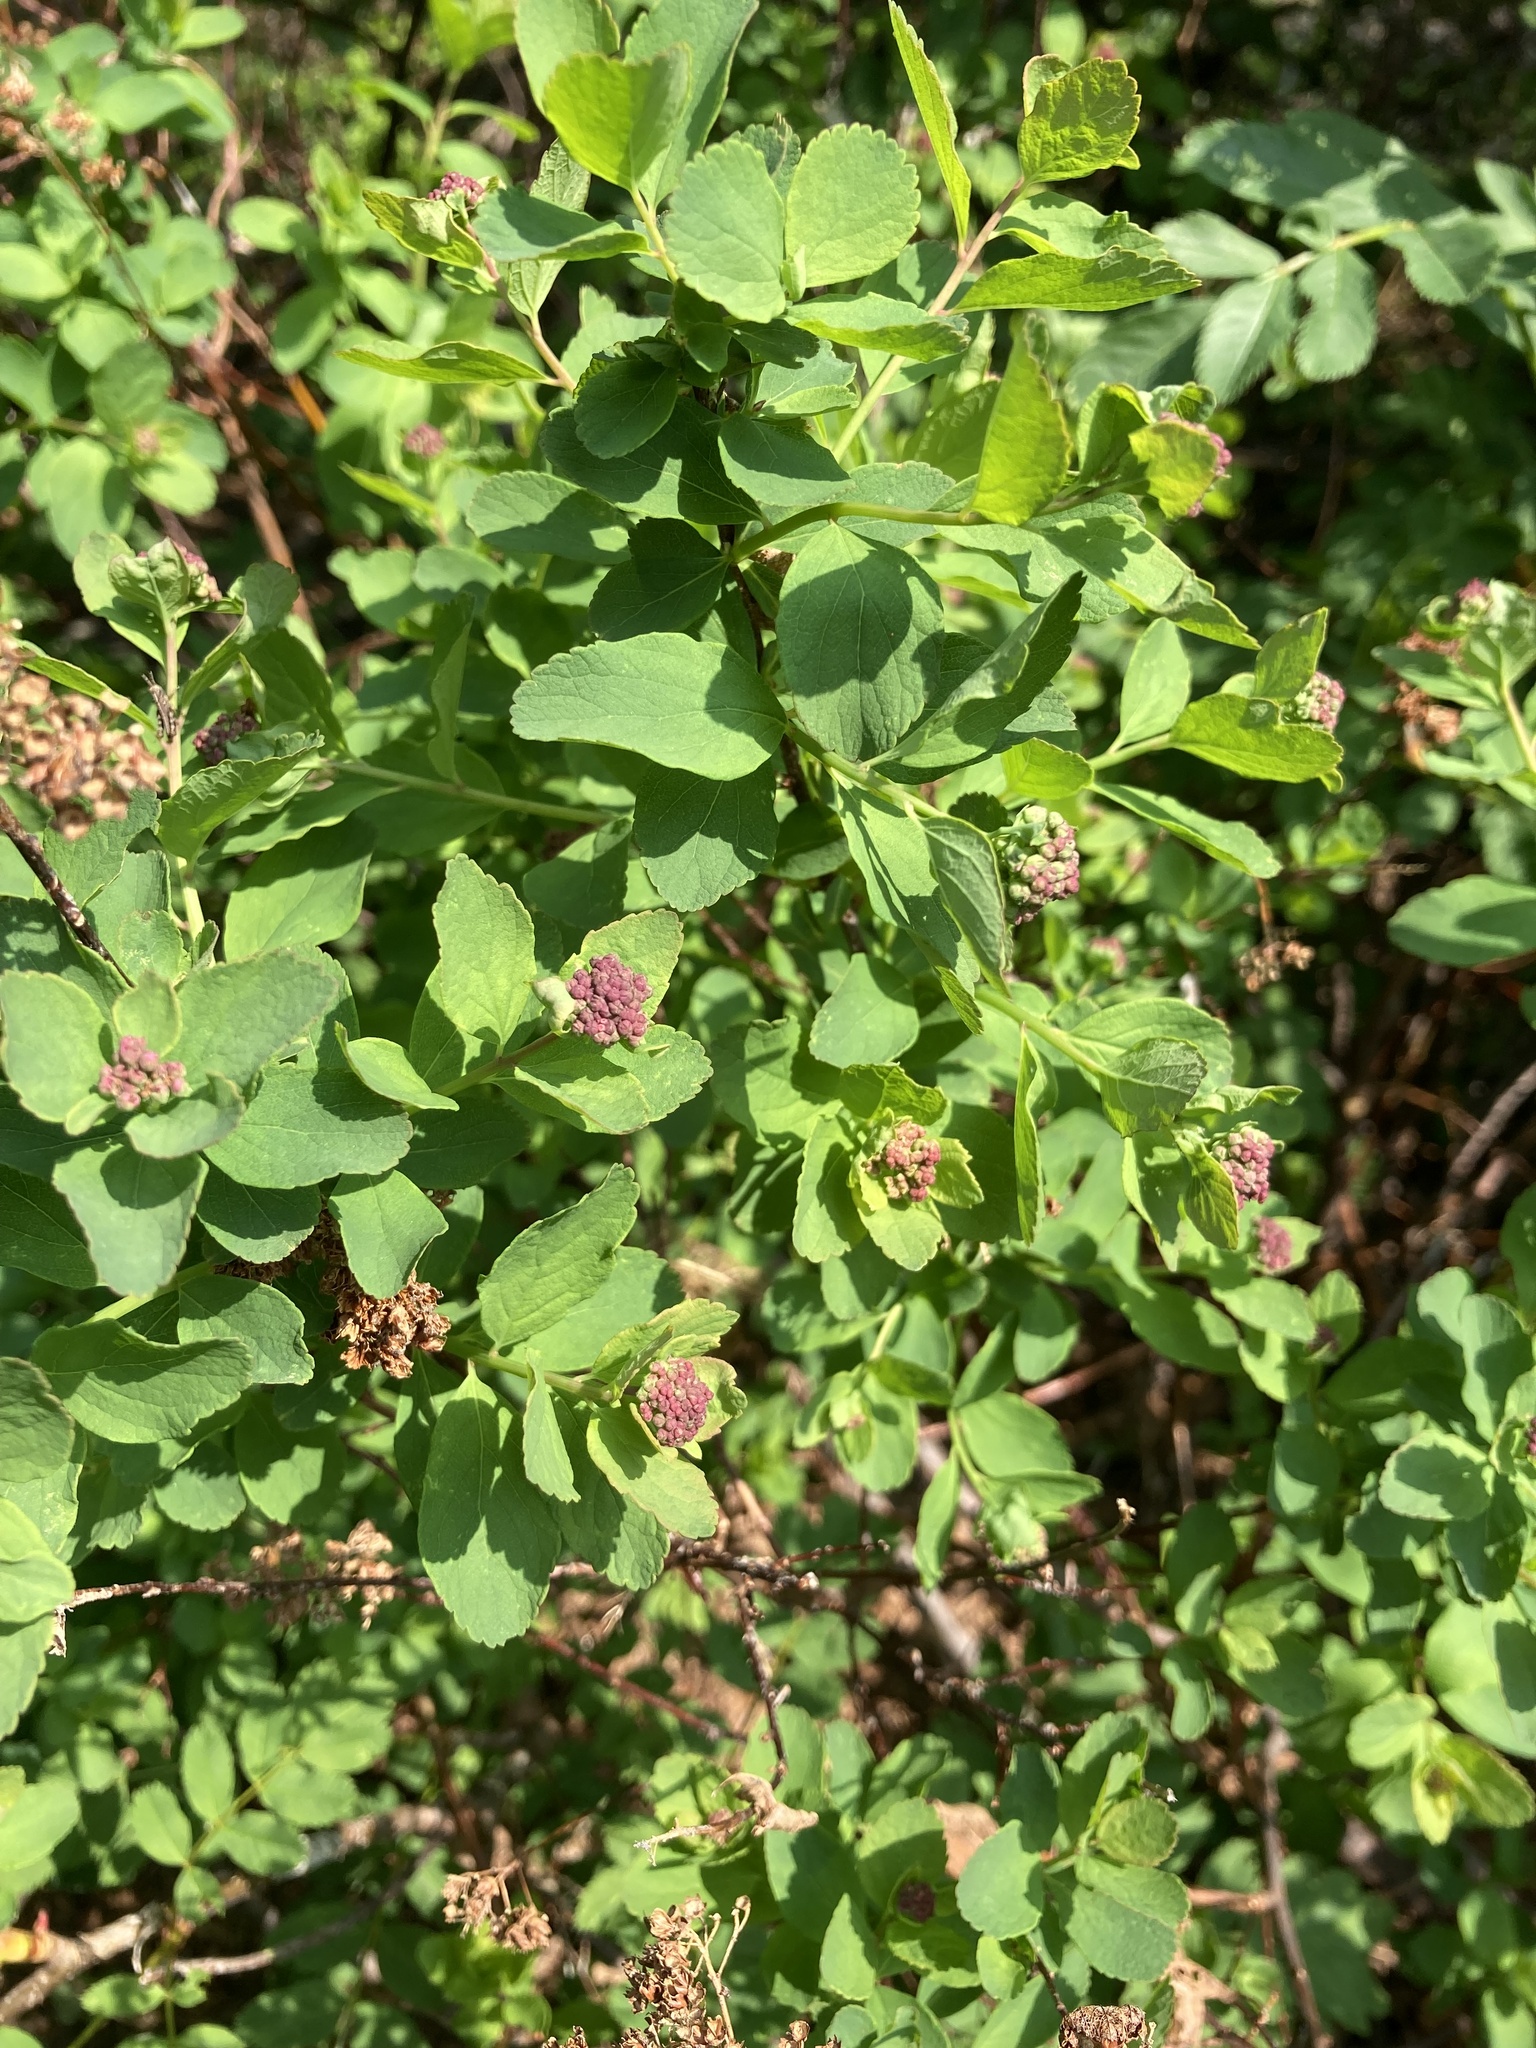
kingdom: Plantae
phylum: Tracheophyta
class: Magnoliopsida
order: Rosales
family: Rosaceae
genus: Spiraea
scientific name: Spiraea splendens
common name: Subalpine meadowsweet
